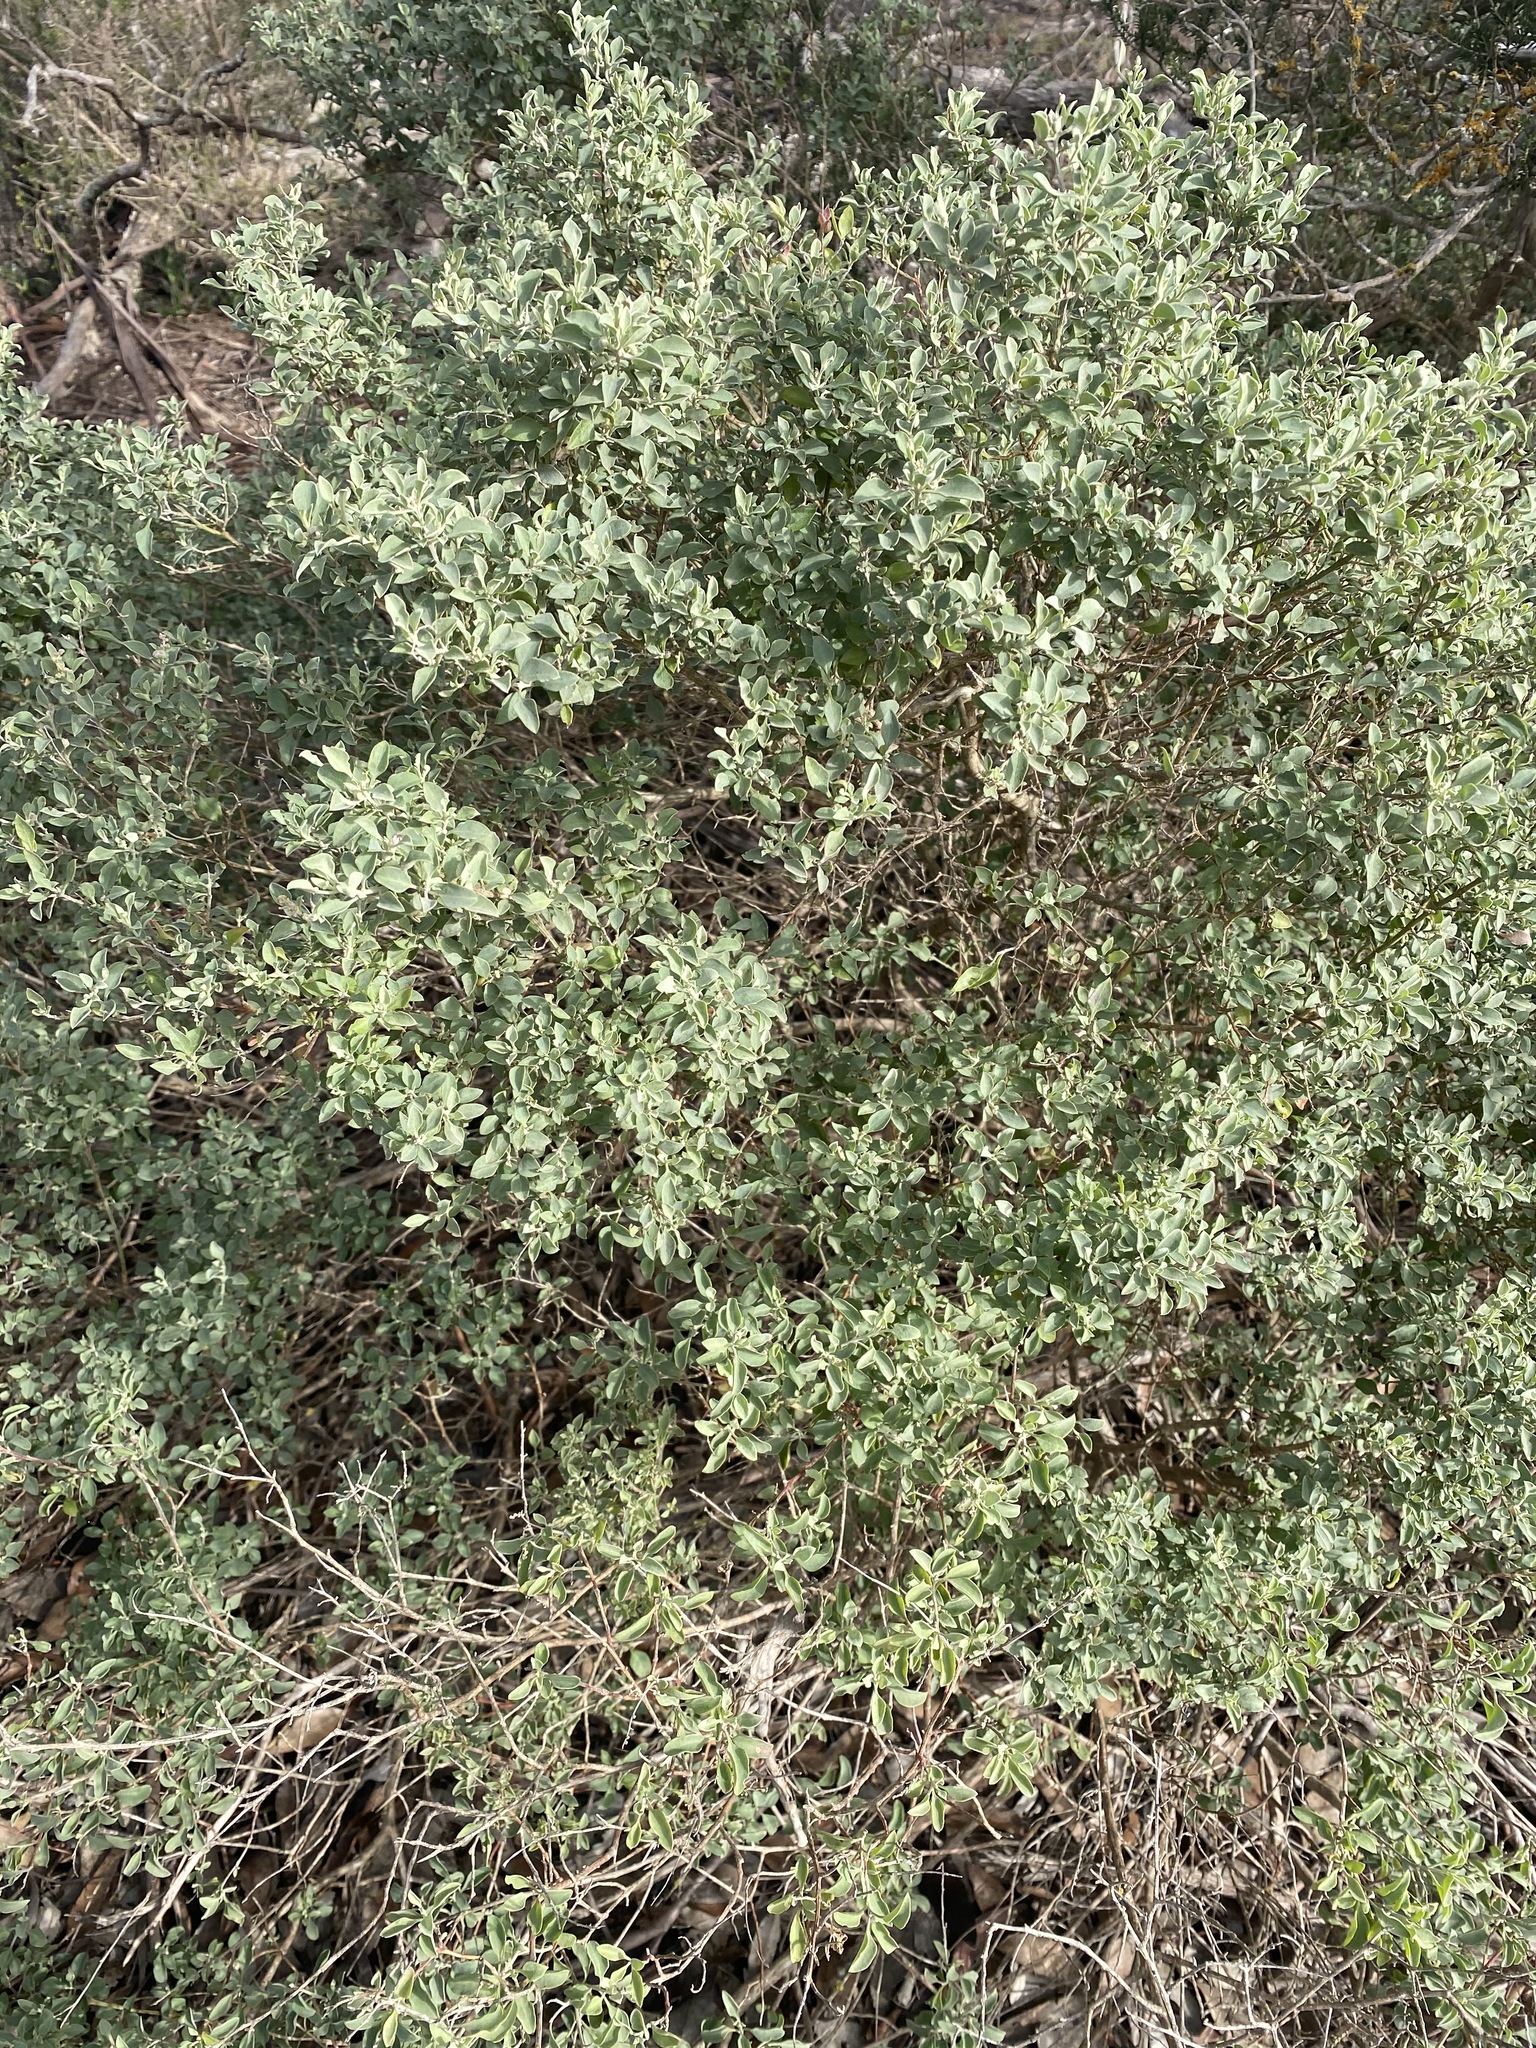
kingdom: Plantae
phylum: Tracheophyta
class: Magnoliopsida
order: Caryophyllales
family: Amaranthaceae
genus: Chenopodium
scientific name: Chenopodium parabolicum
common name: Old-man-saltbush
